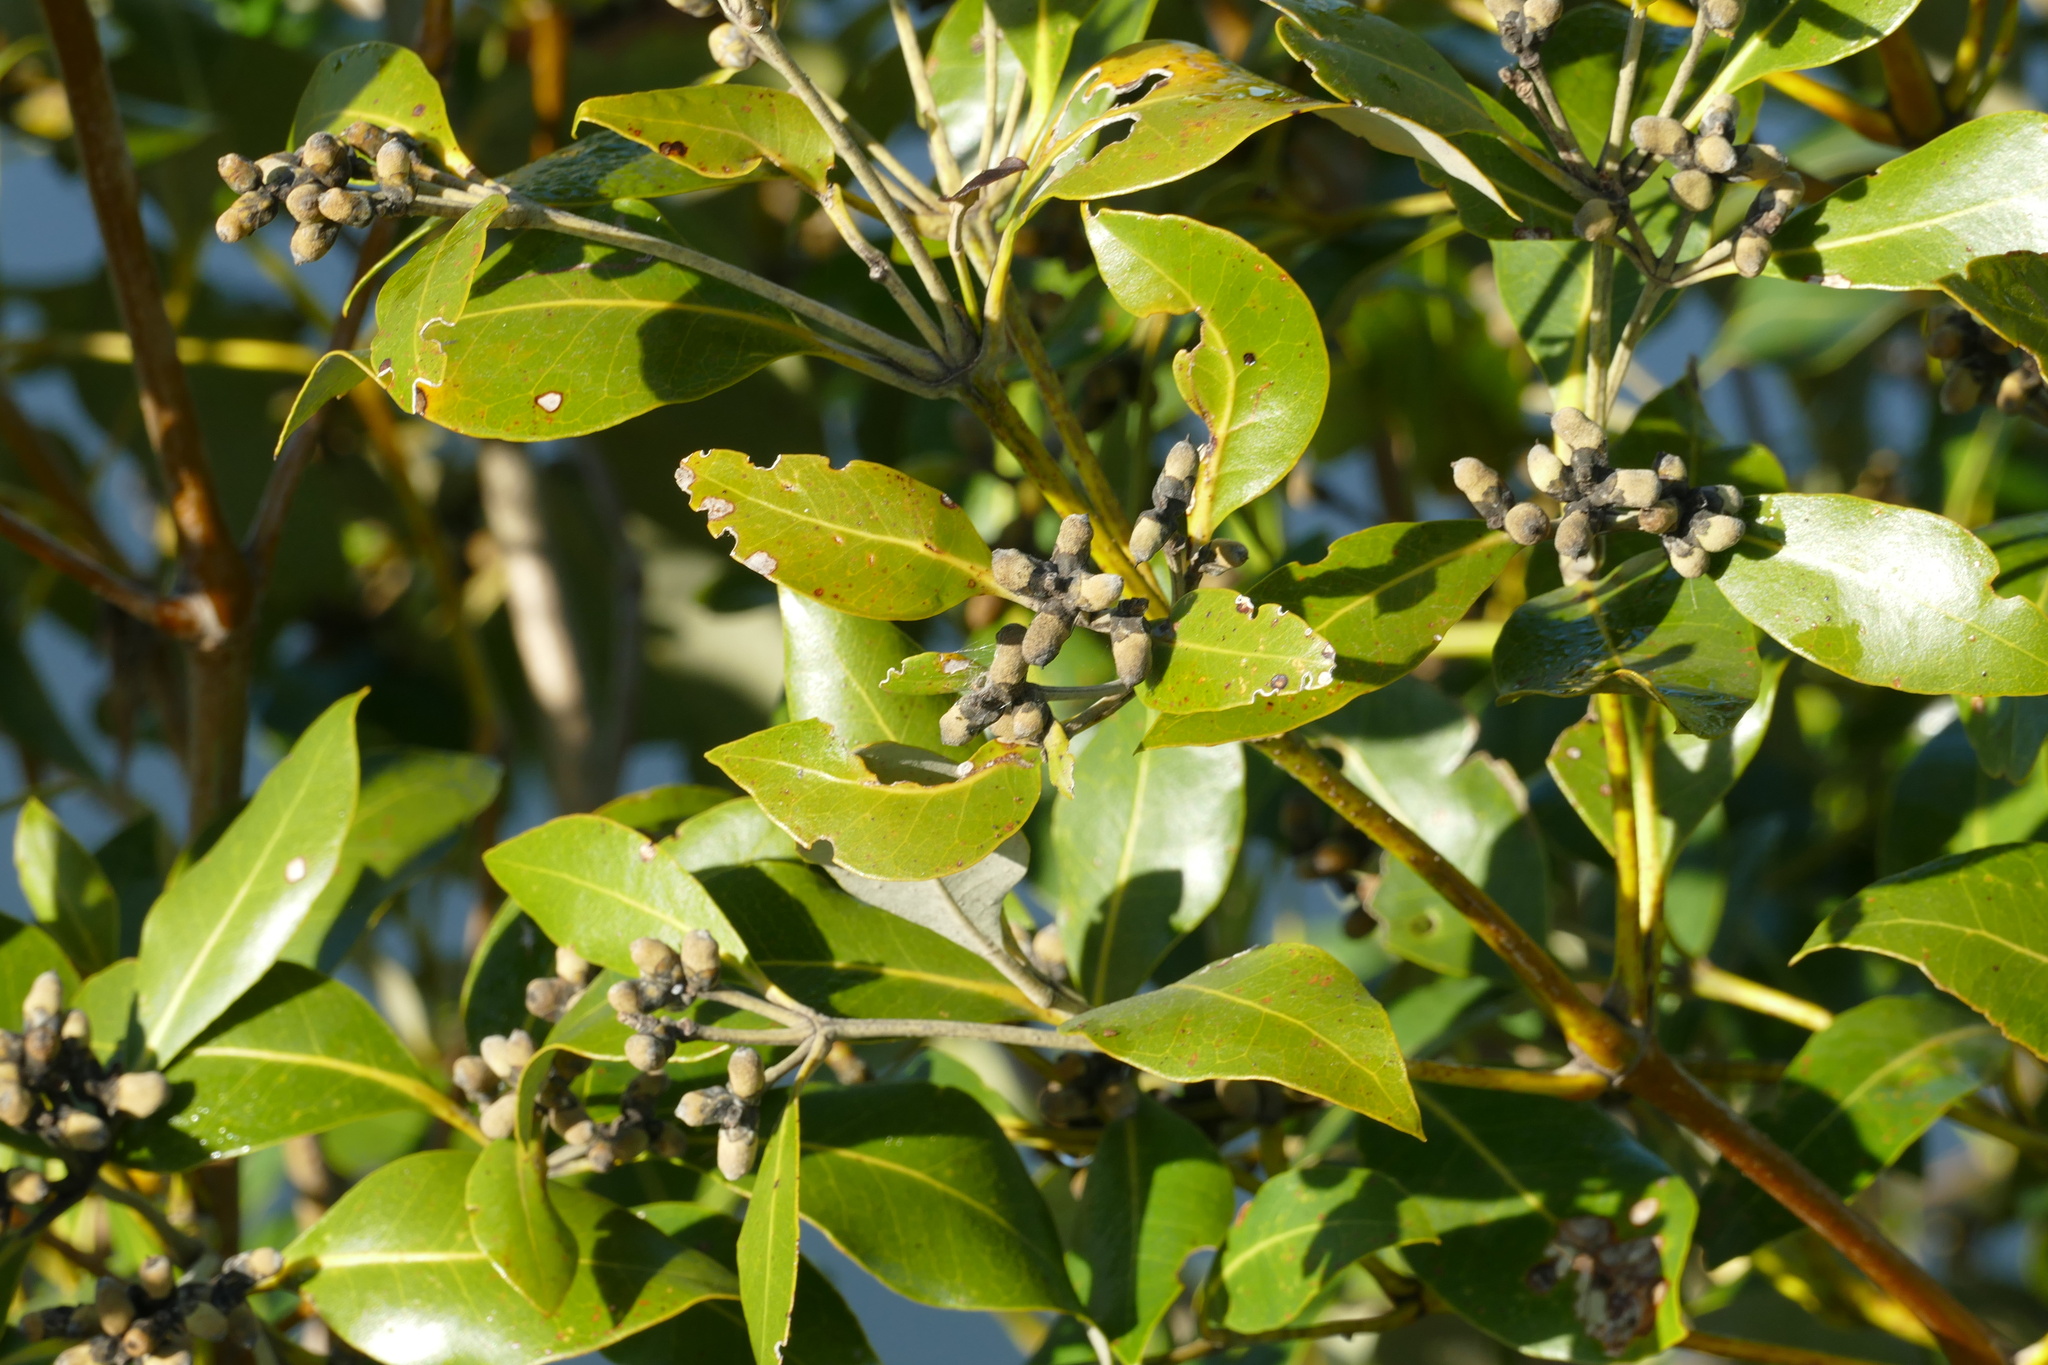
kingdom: Plantae
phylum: Tracheophyta
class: Magnoliopsida
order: Lamiales
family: Acanthaceae
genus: Avicennia
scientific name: Avicennia marina
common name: Gray mangrove
